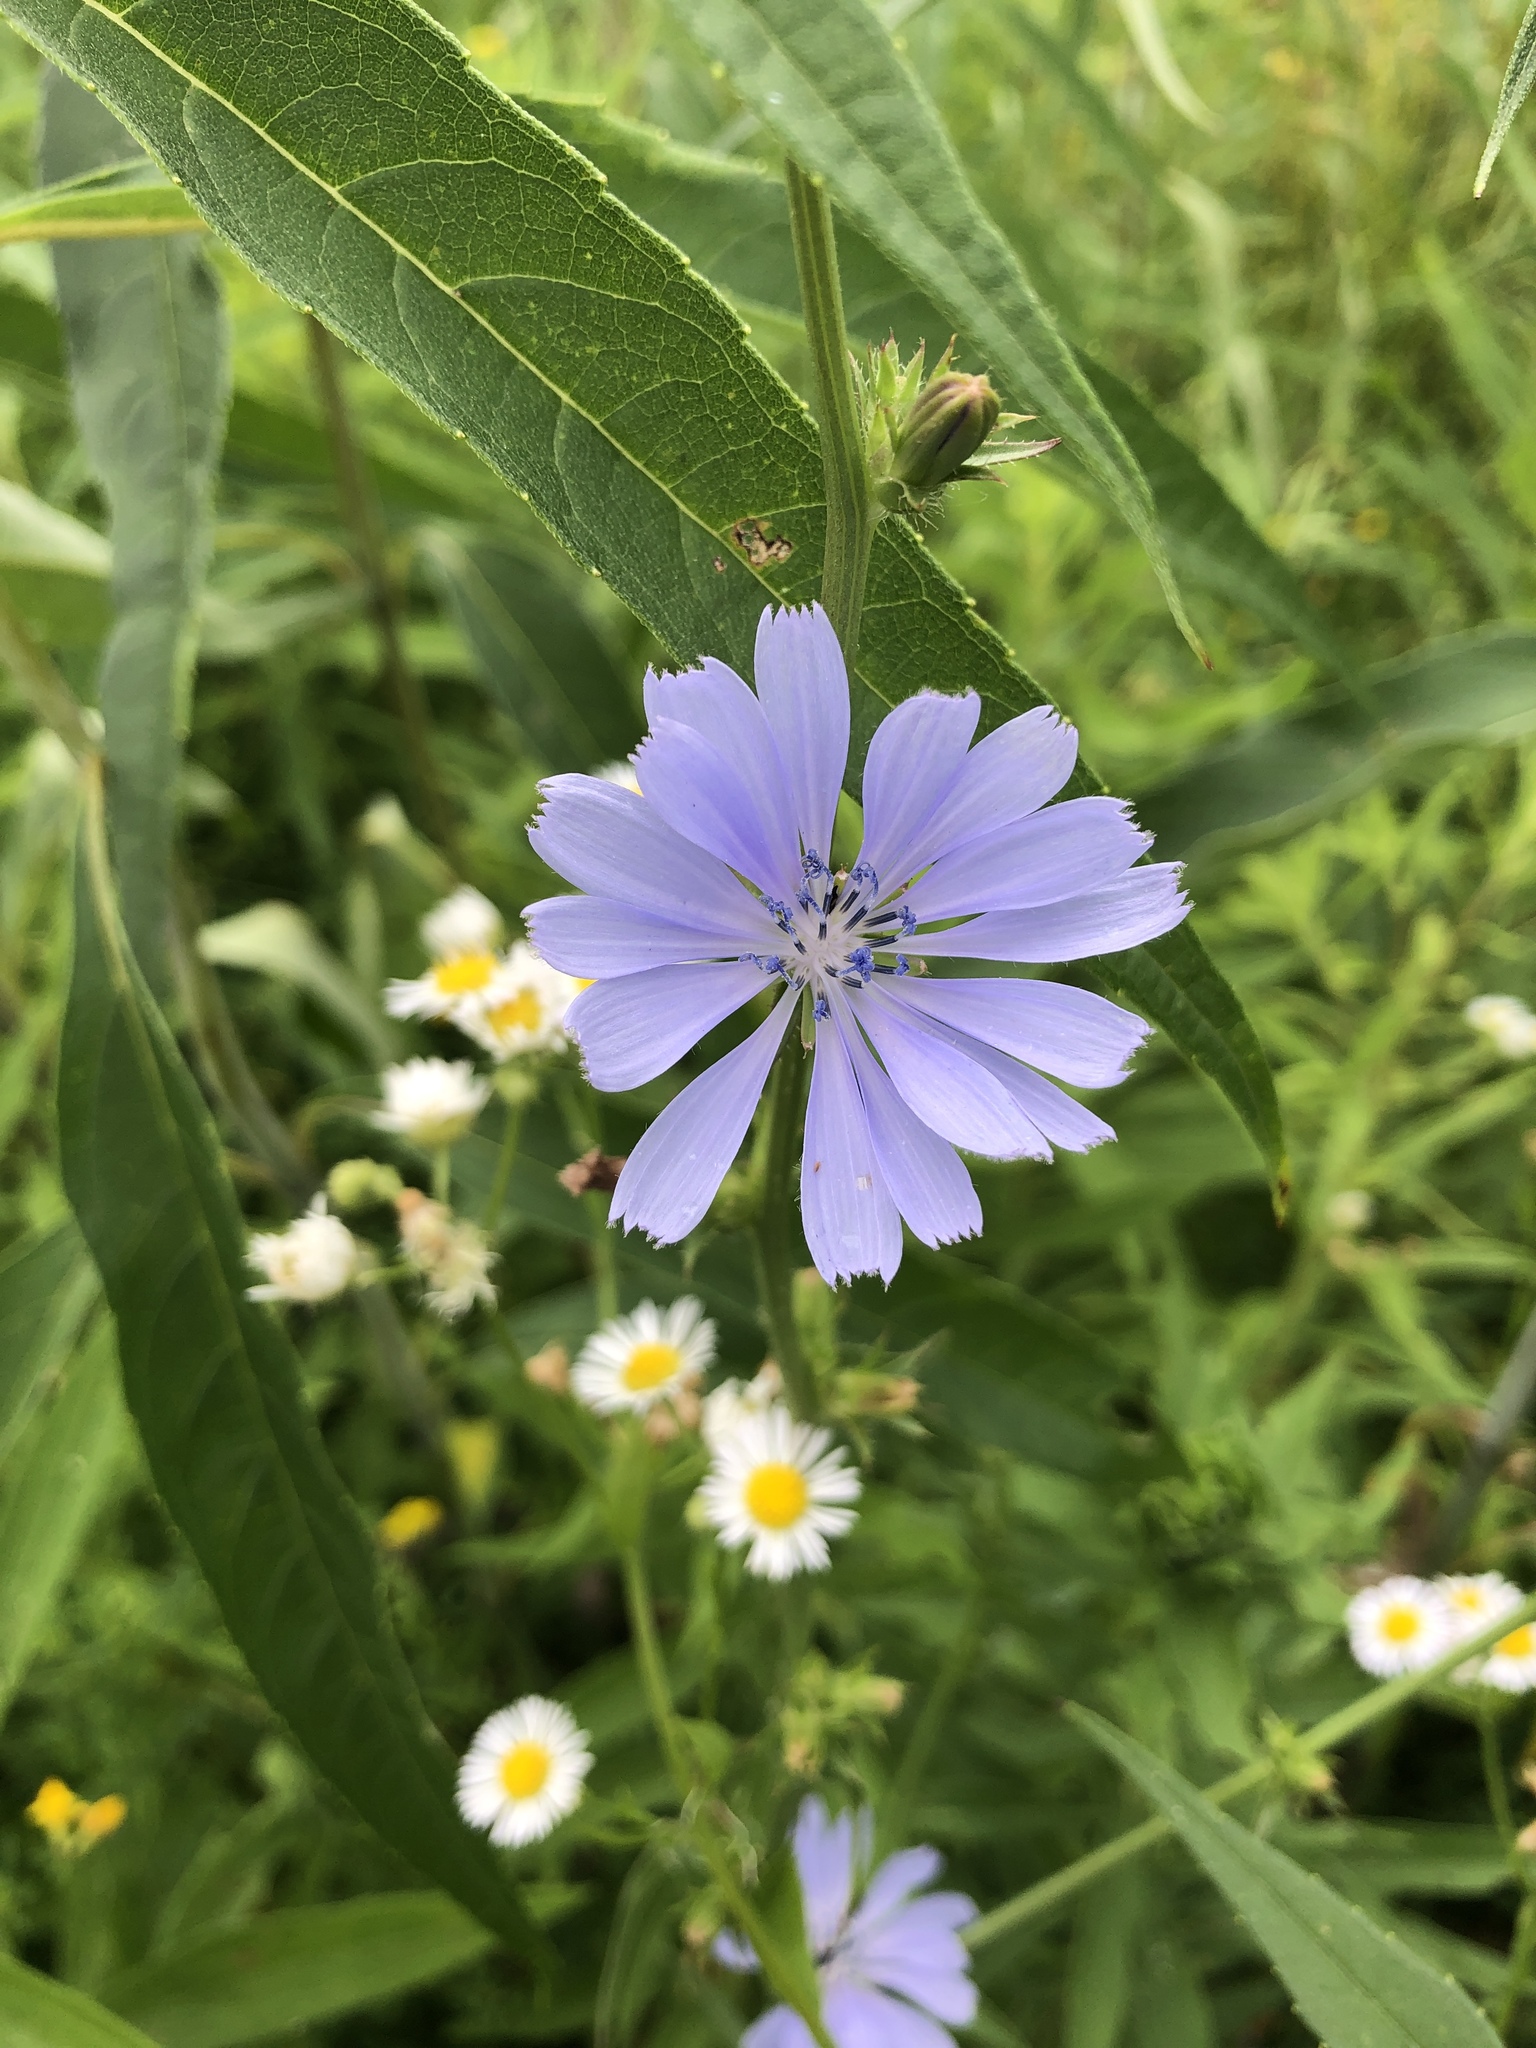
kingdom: Plantae
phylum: Tracheophyta
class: Magnoliopsida
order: Asterales
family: Asteraceae
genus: Cichorium
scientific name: Cichorium intybus
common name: Chicory
